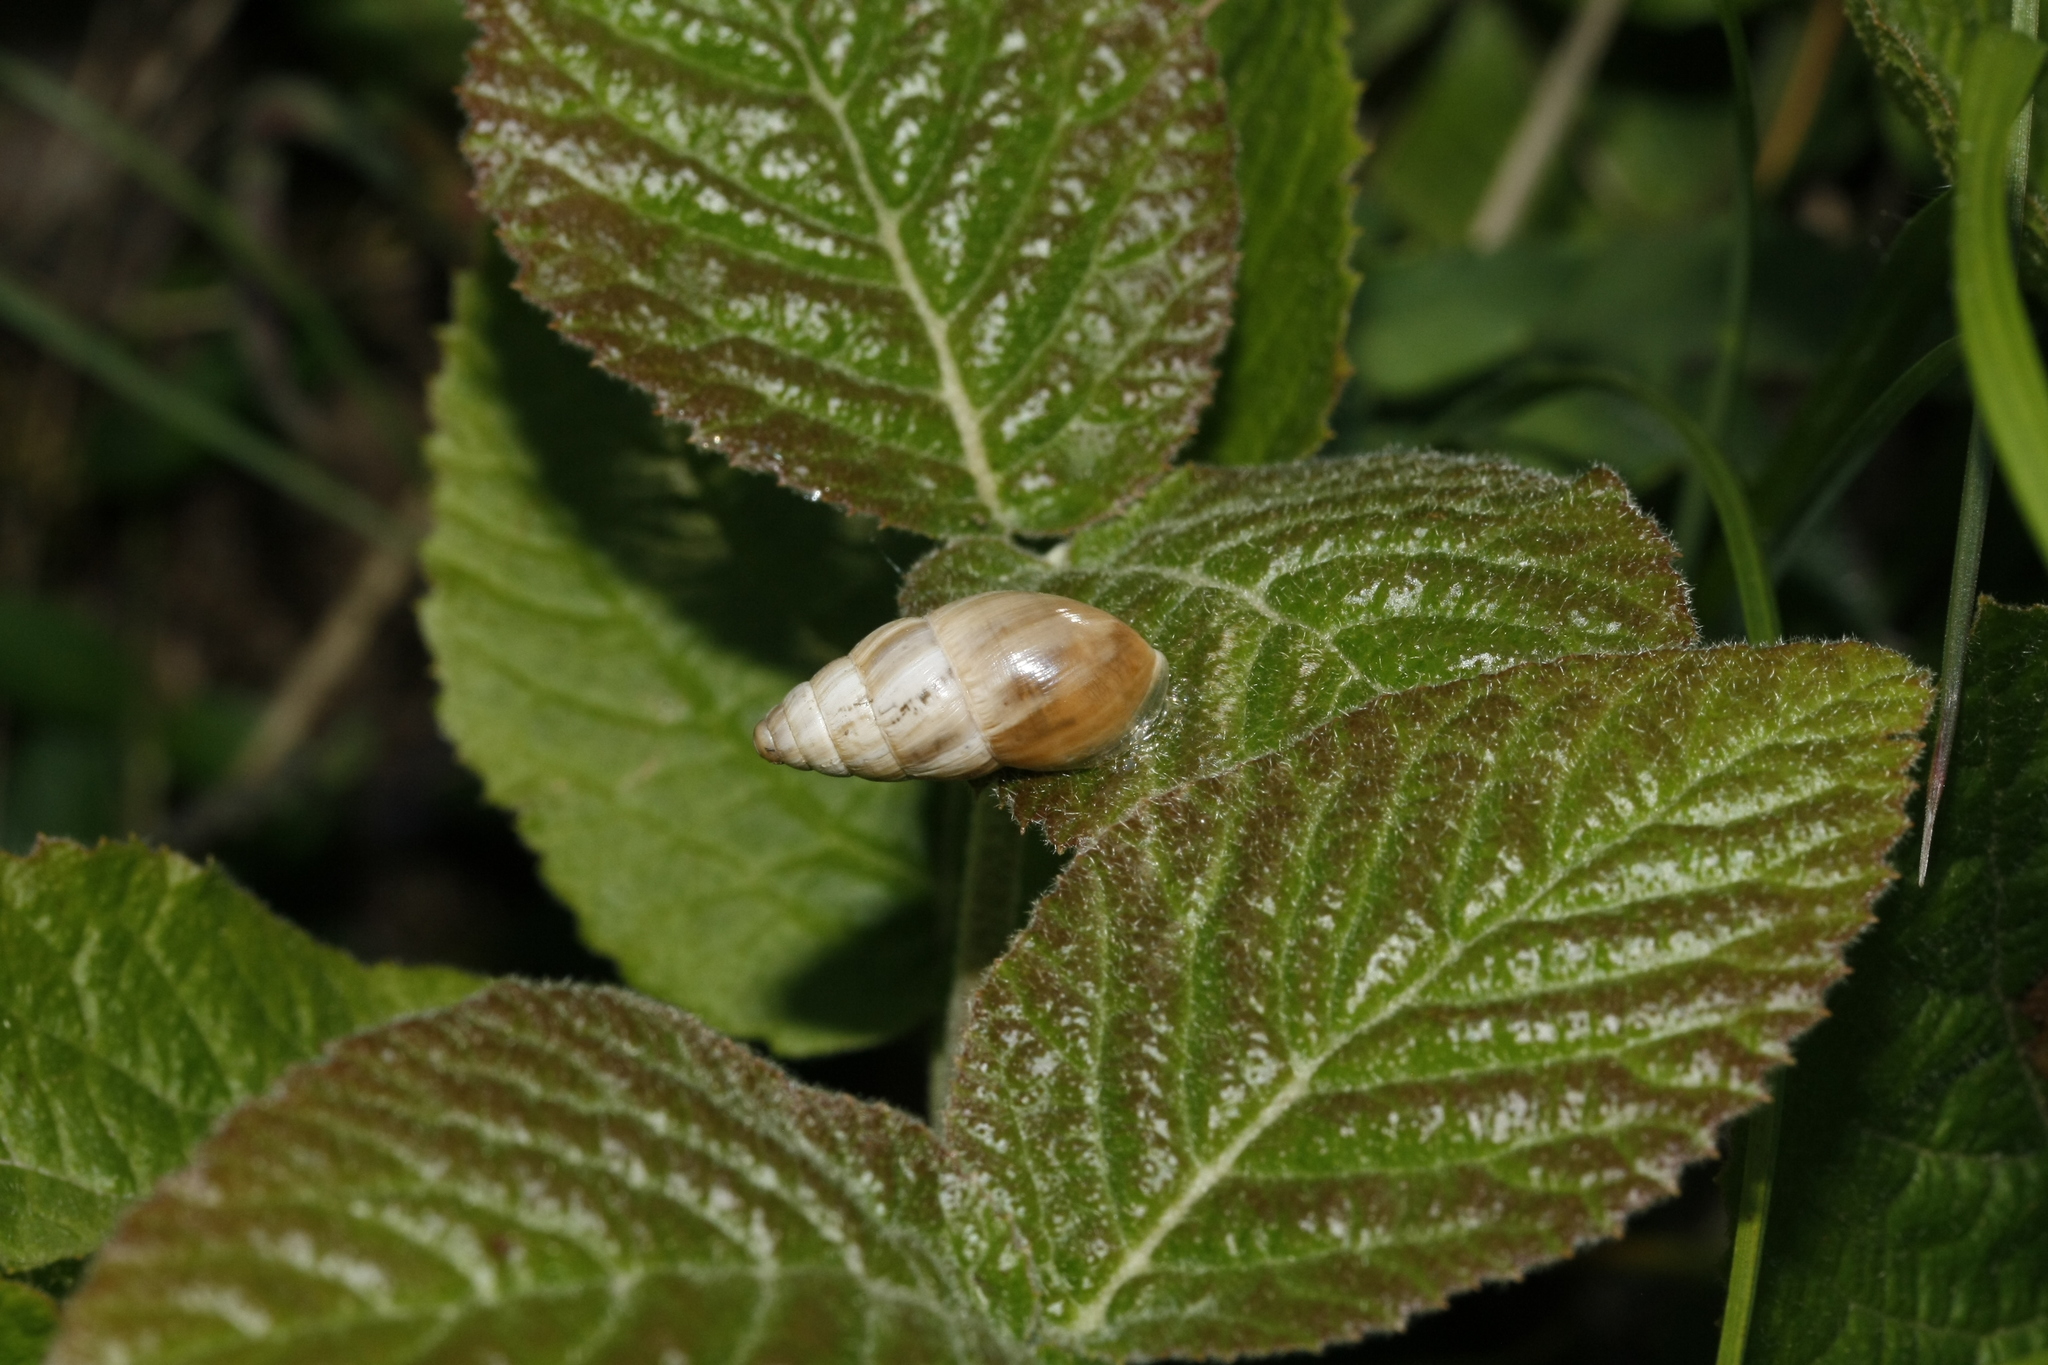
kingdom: Animalia
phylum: Mollusca
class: Gastropoda
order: Stylommatophora
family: Enidae
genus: Zebrina
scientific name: Zebrina detrita
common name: Large bulin
